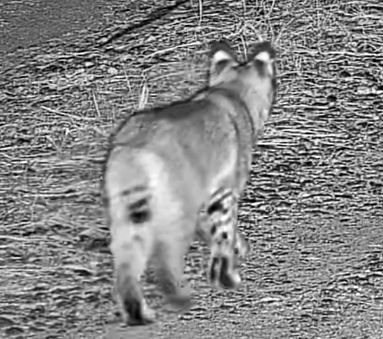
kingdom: Animalia
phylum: Chordata
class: Mammalia
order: Carnivora
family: Felidae
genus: Lynx
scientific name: Lynx rufus
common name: Bobcat
